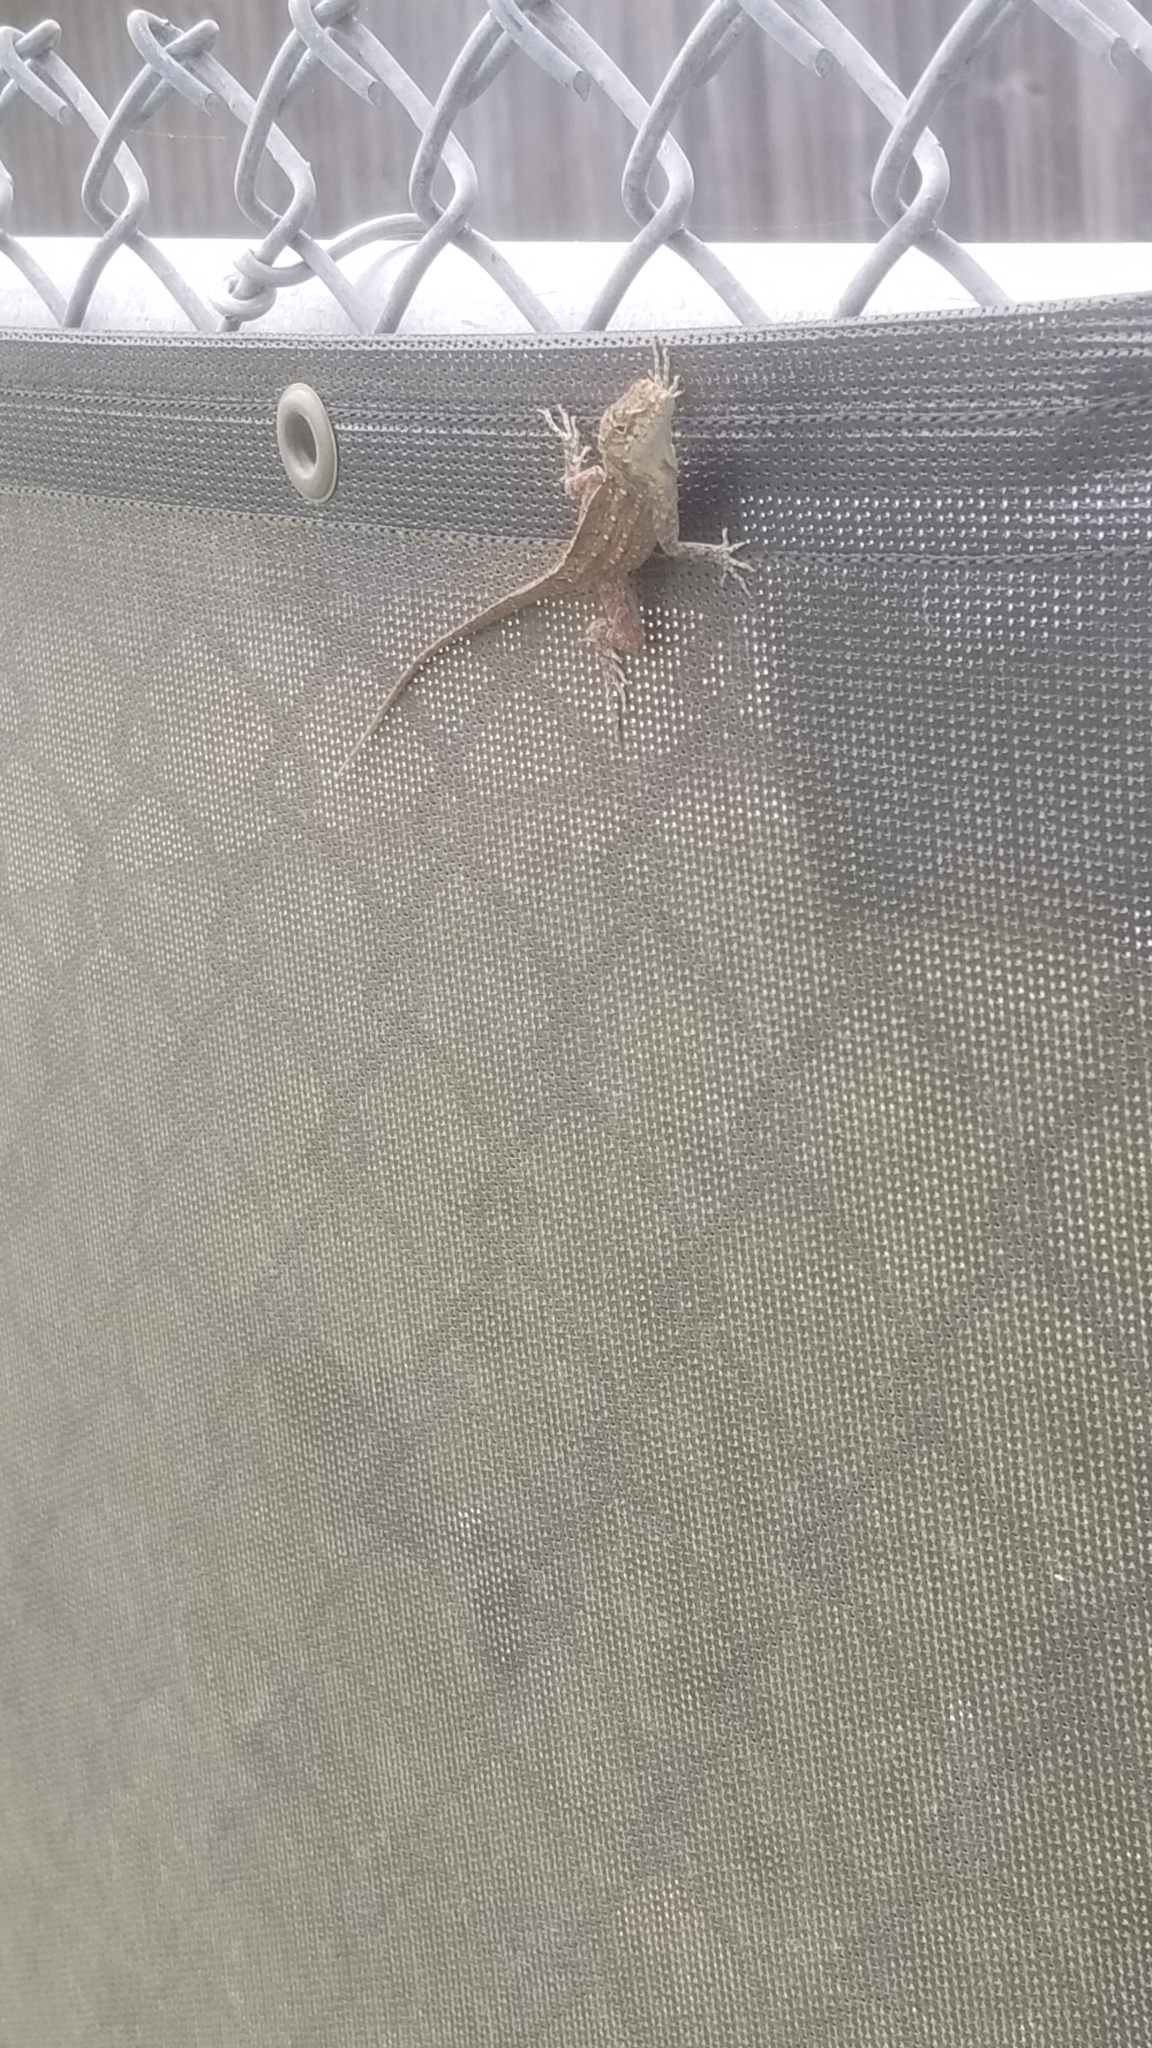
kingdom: Animalia
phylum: Chordata
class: Squamata
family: Dactyloidae
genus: Anolis
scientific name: Anolis sagrei
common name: Brown anole
